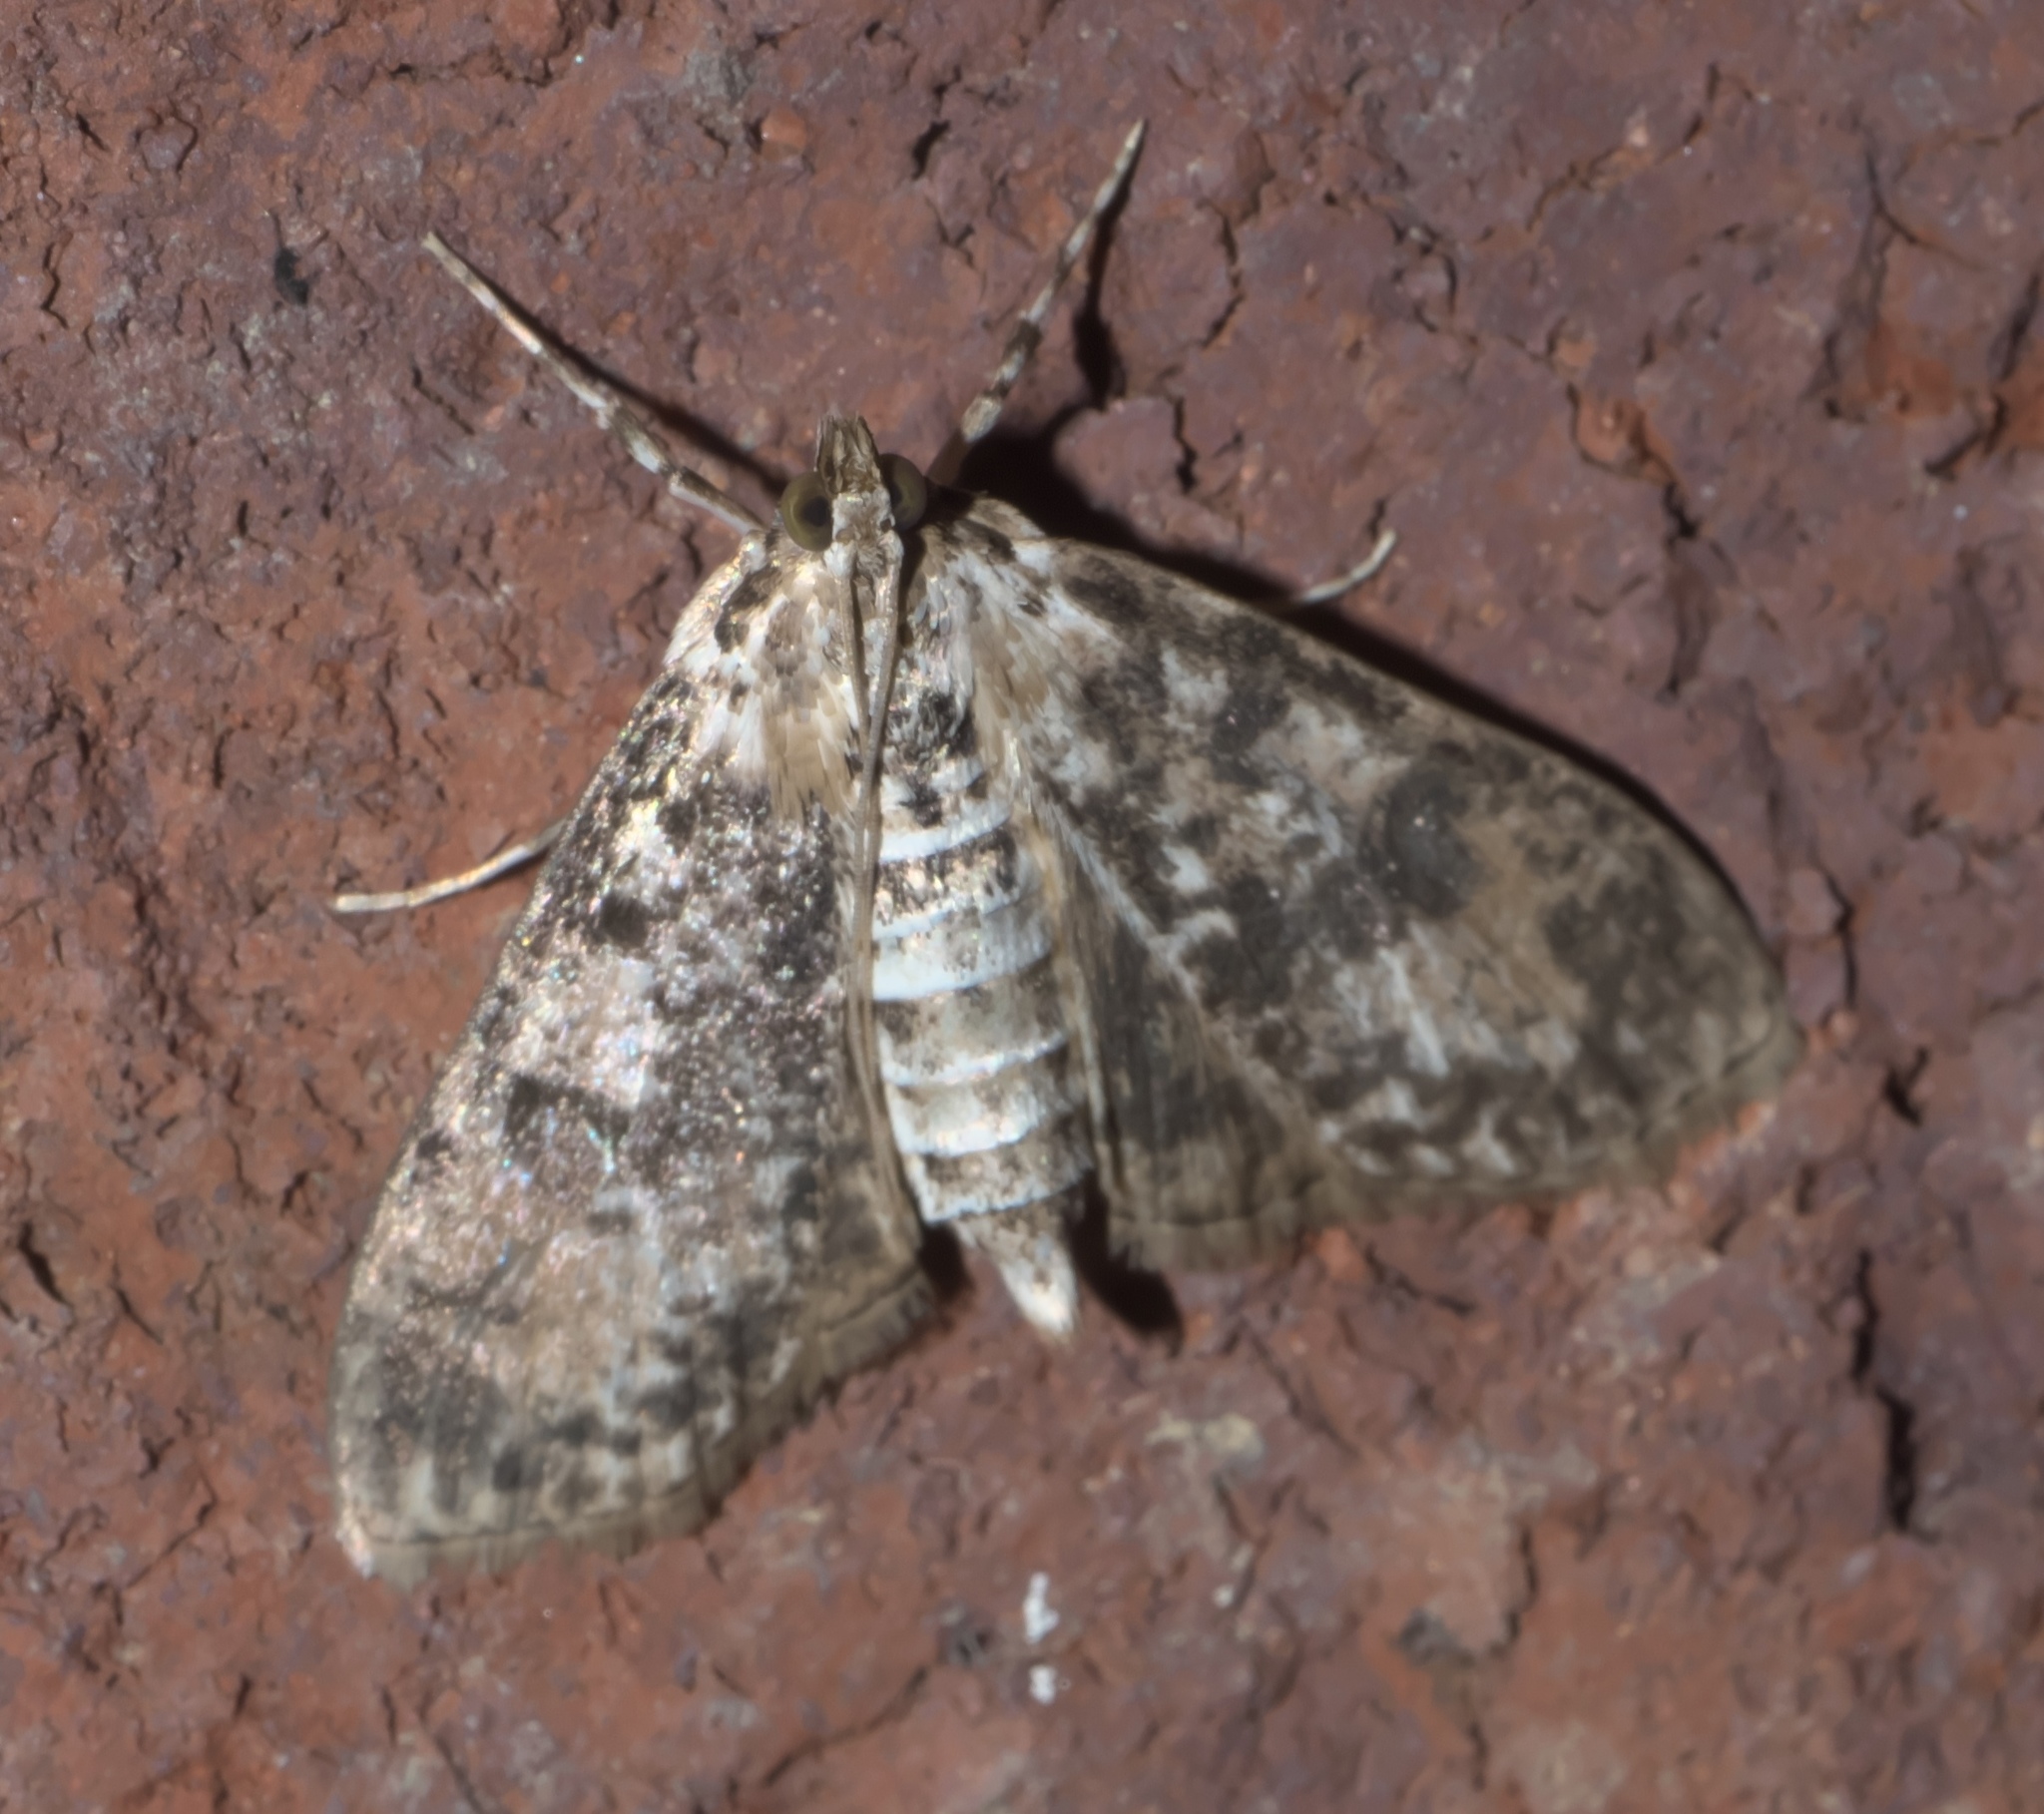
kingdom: Animalia
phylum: Arthropoda
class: Insecta
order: Lepidoptera
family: Crambidae
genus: Palpita
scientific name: Palpita magniferalis
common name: Splendid palpita moth
